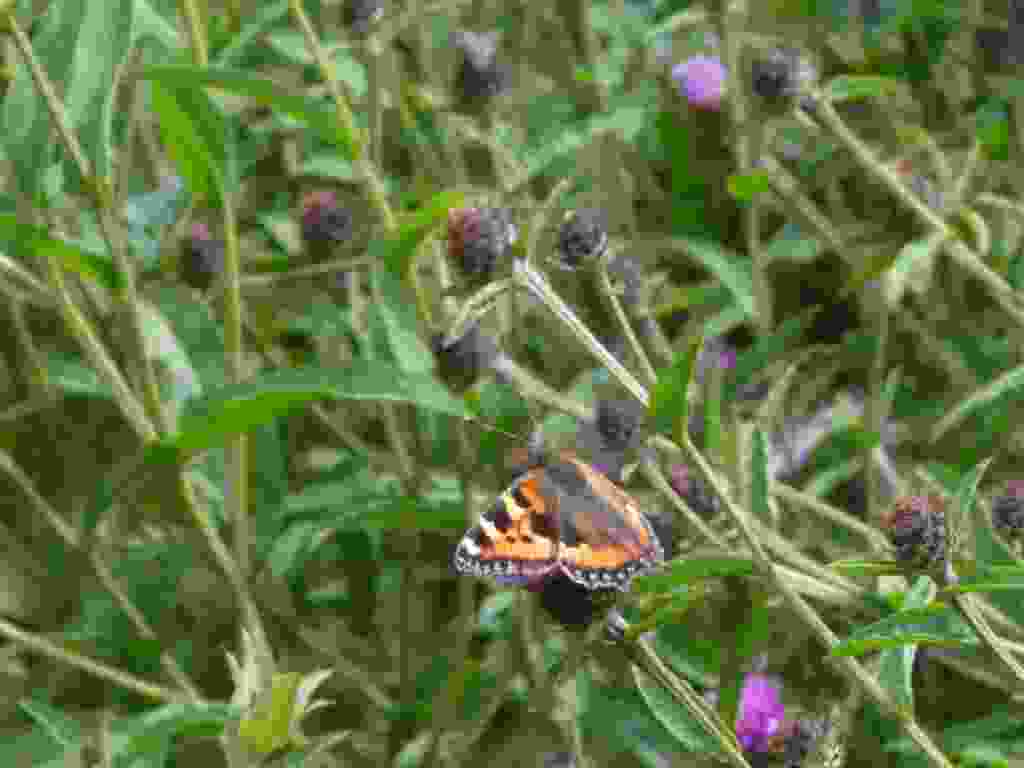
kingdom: Animalia
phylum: Arthropoda
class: Insecta
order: Lepidoptera
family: Nymphalidae
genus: Aglais
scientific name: Aglais urticae
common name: Small tortoiseshell
